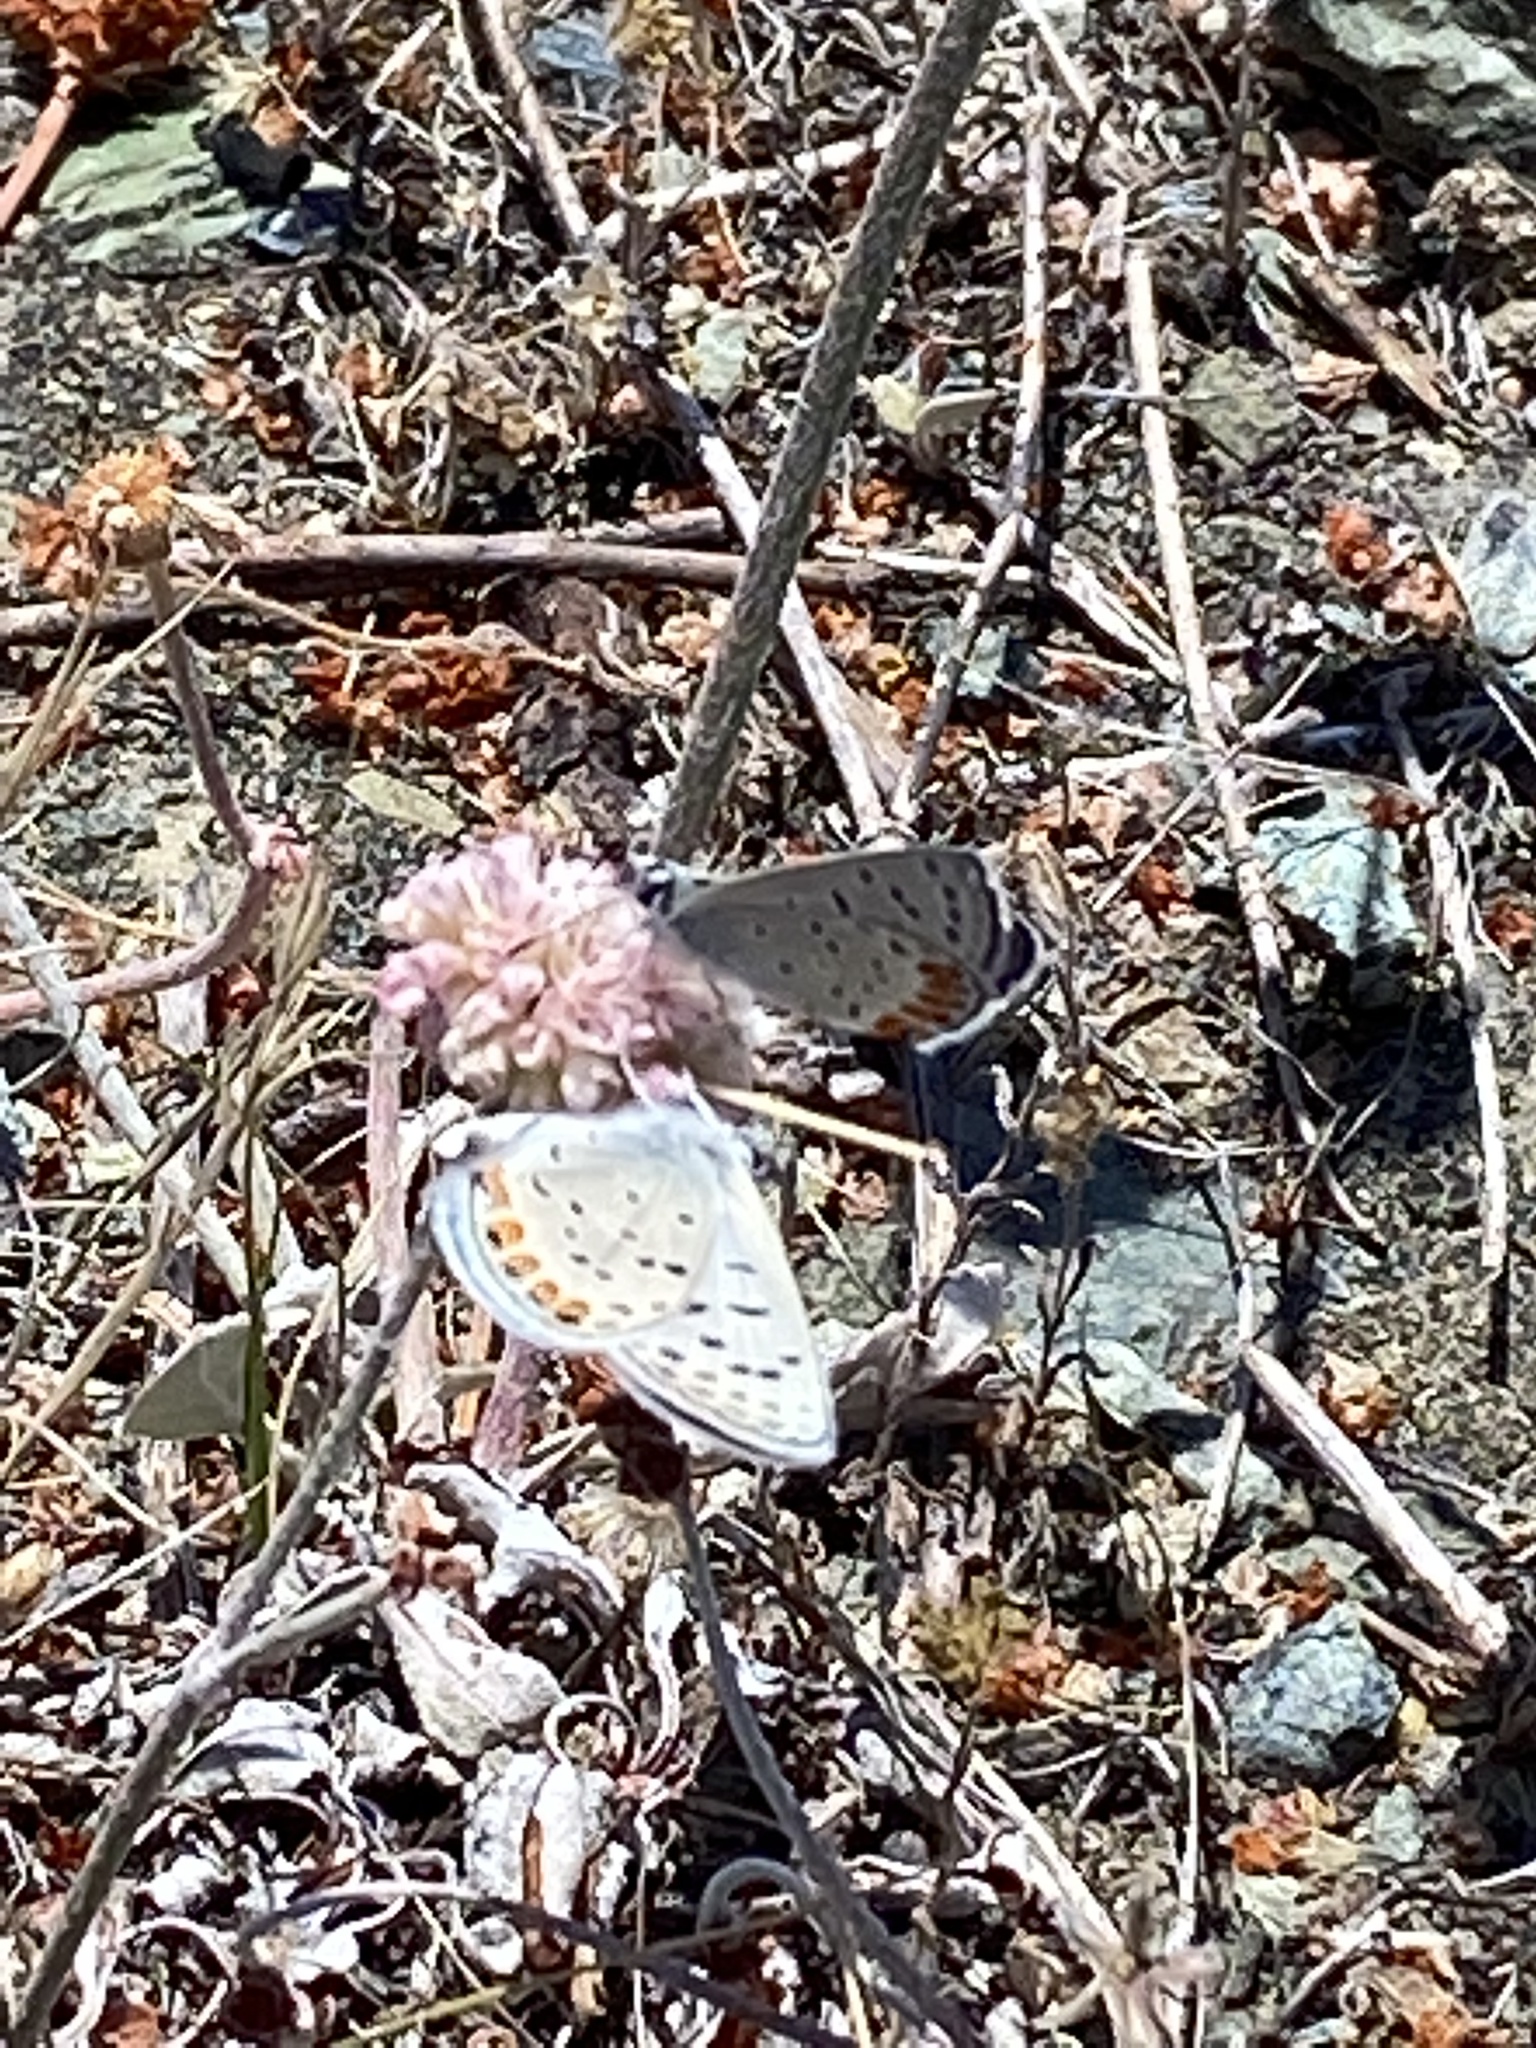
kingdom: Animalia
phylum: Arthropoda
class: Insecta
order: Lepidoptera
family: Lycaenidae
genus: Icaricia
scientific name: Icaricia acmon
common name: Acmon blue
